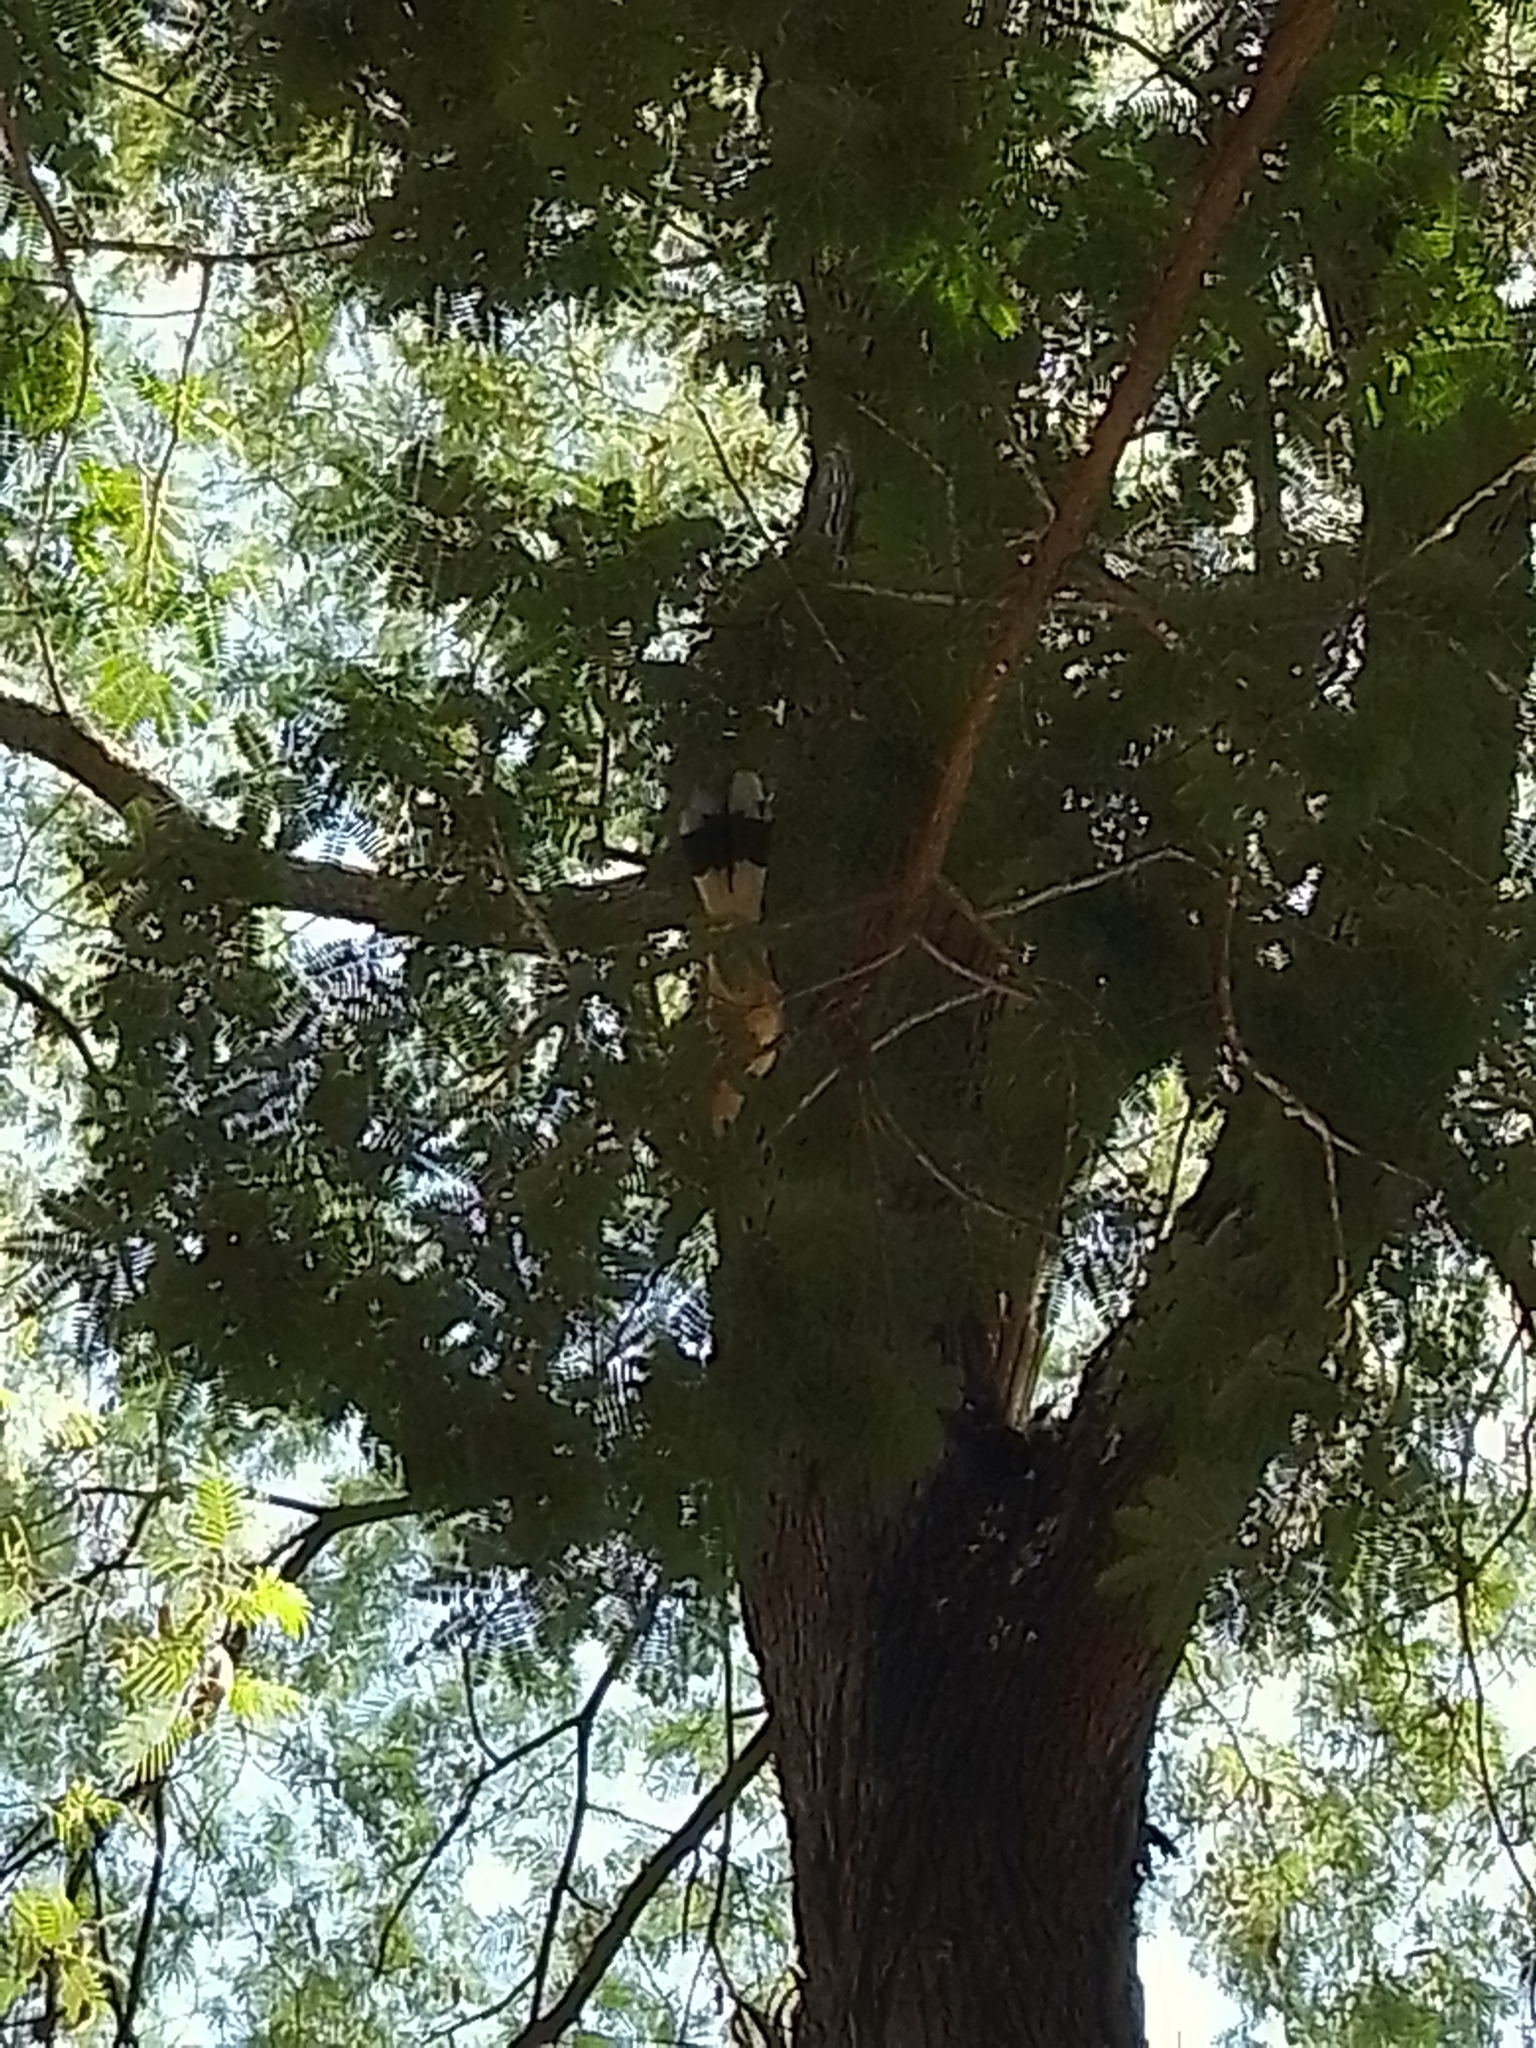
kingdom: Animalia
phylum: Chordata
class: Aves
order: Cuculiformes
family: Cuculidae
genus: Guira
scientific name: Guira guira
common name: Guira cuckoo
